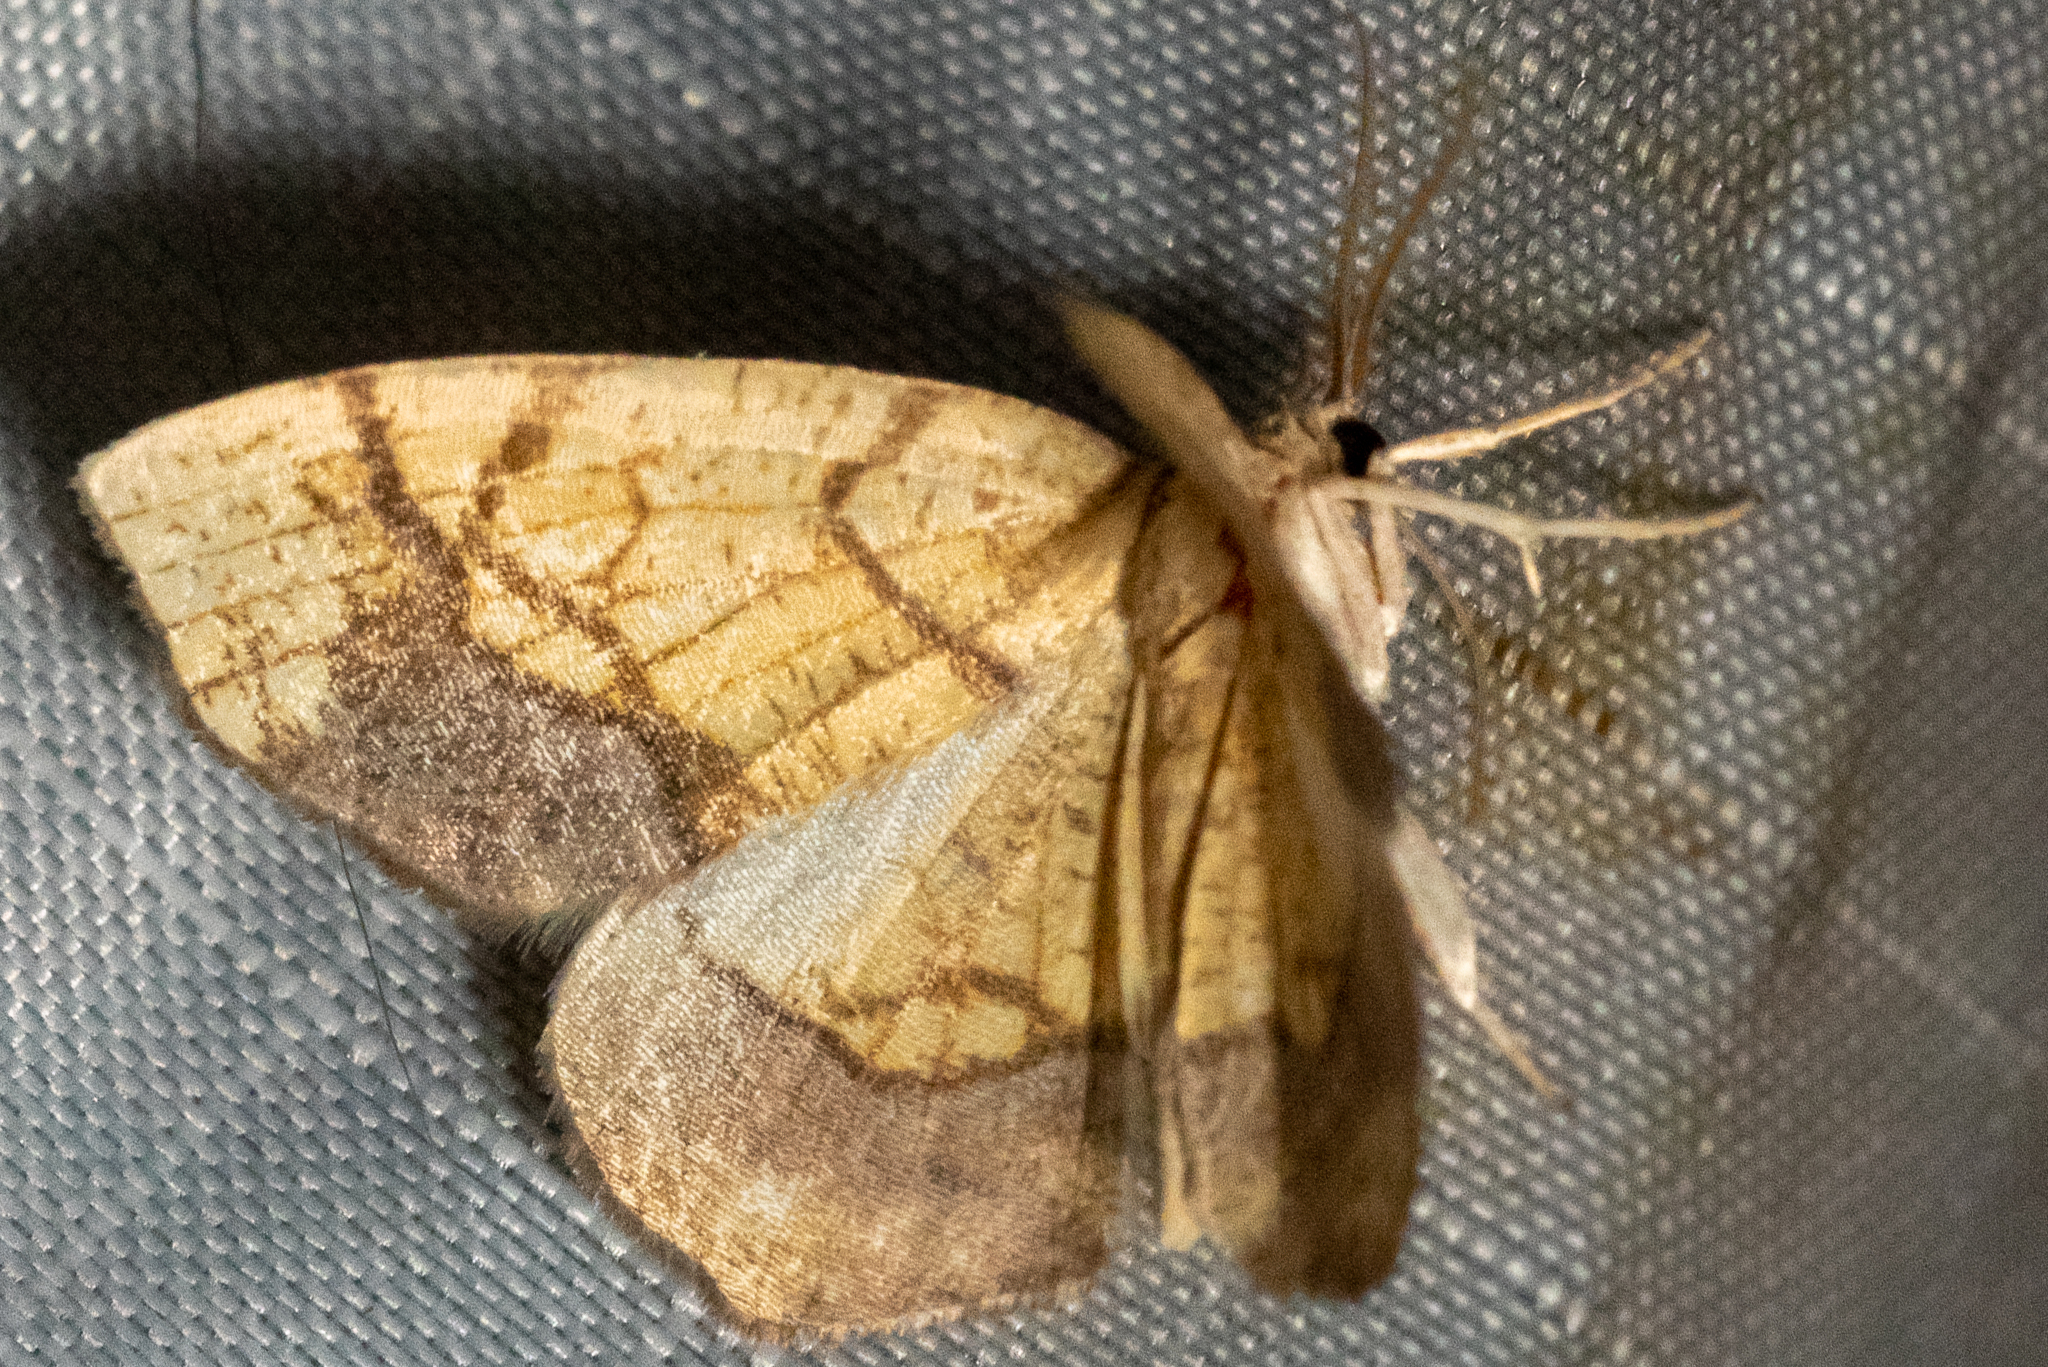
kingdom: Animalia
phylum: Arthropoda
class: Insecta
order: Lepidoptera
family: Geometridae
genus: Nematocampa
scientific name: Nematocampa resistaria
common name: Horned spanworm moth
